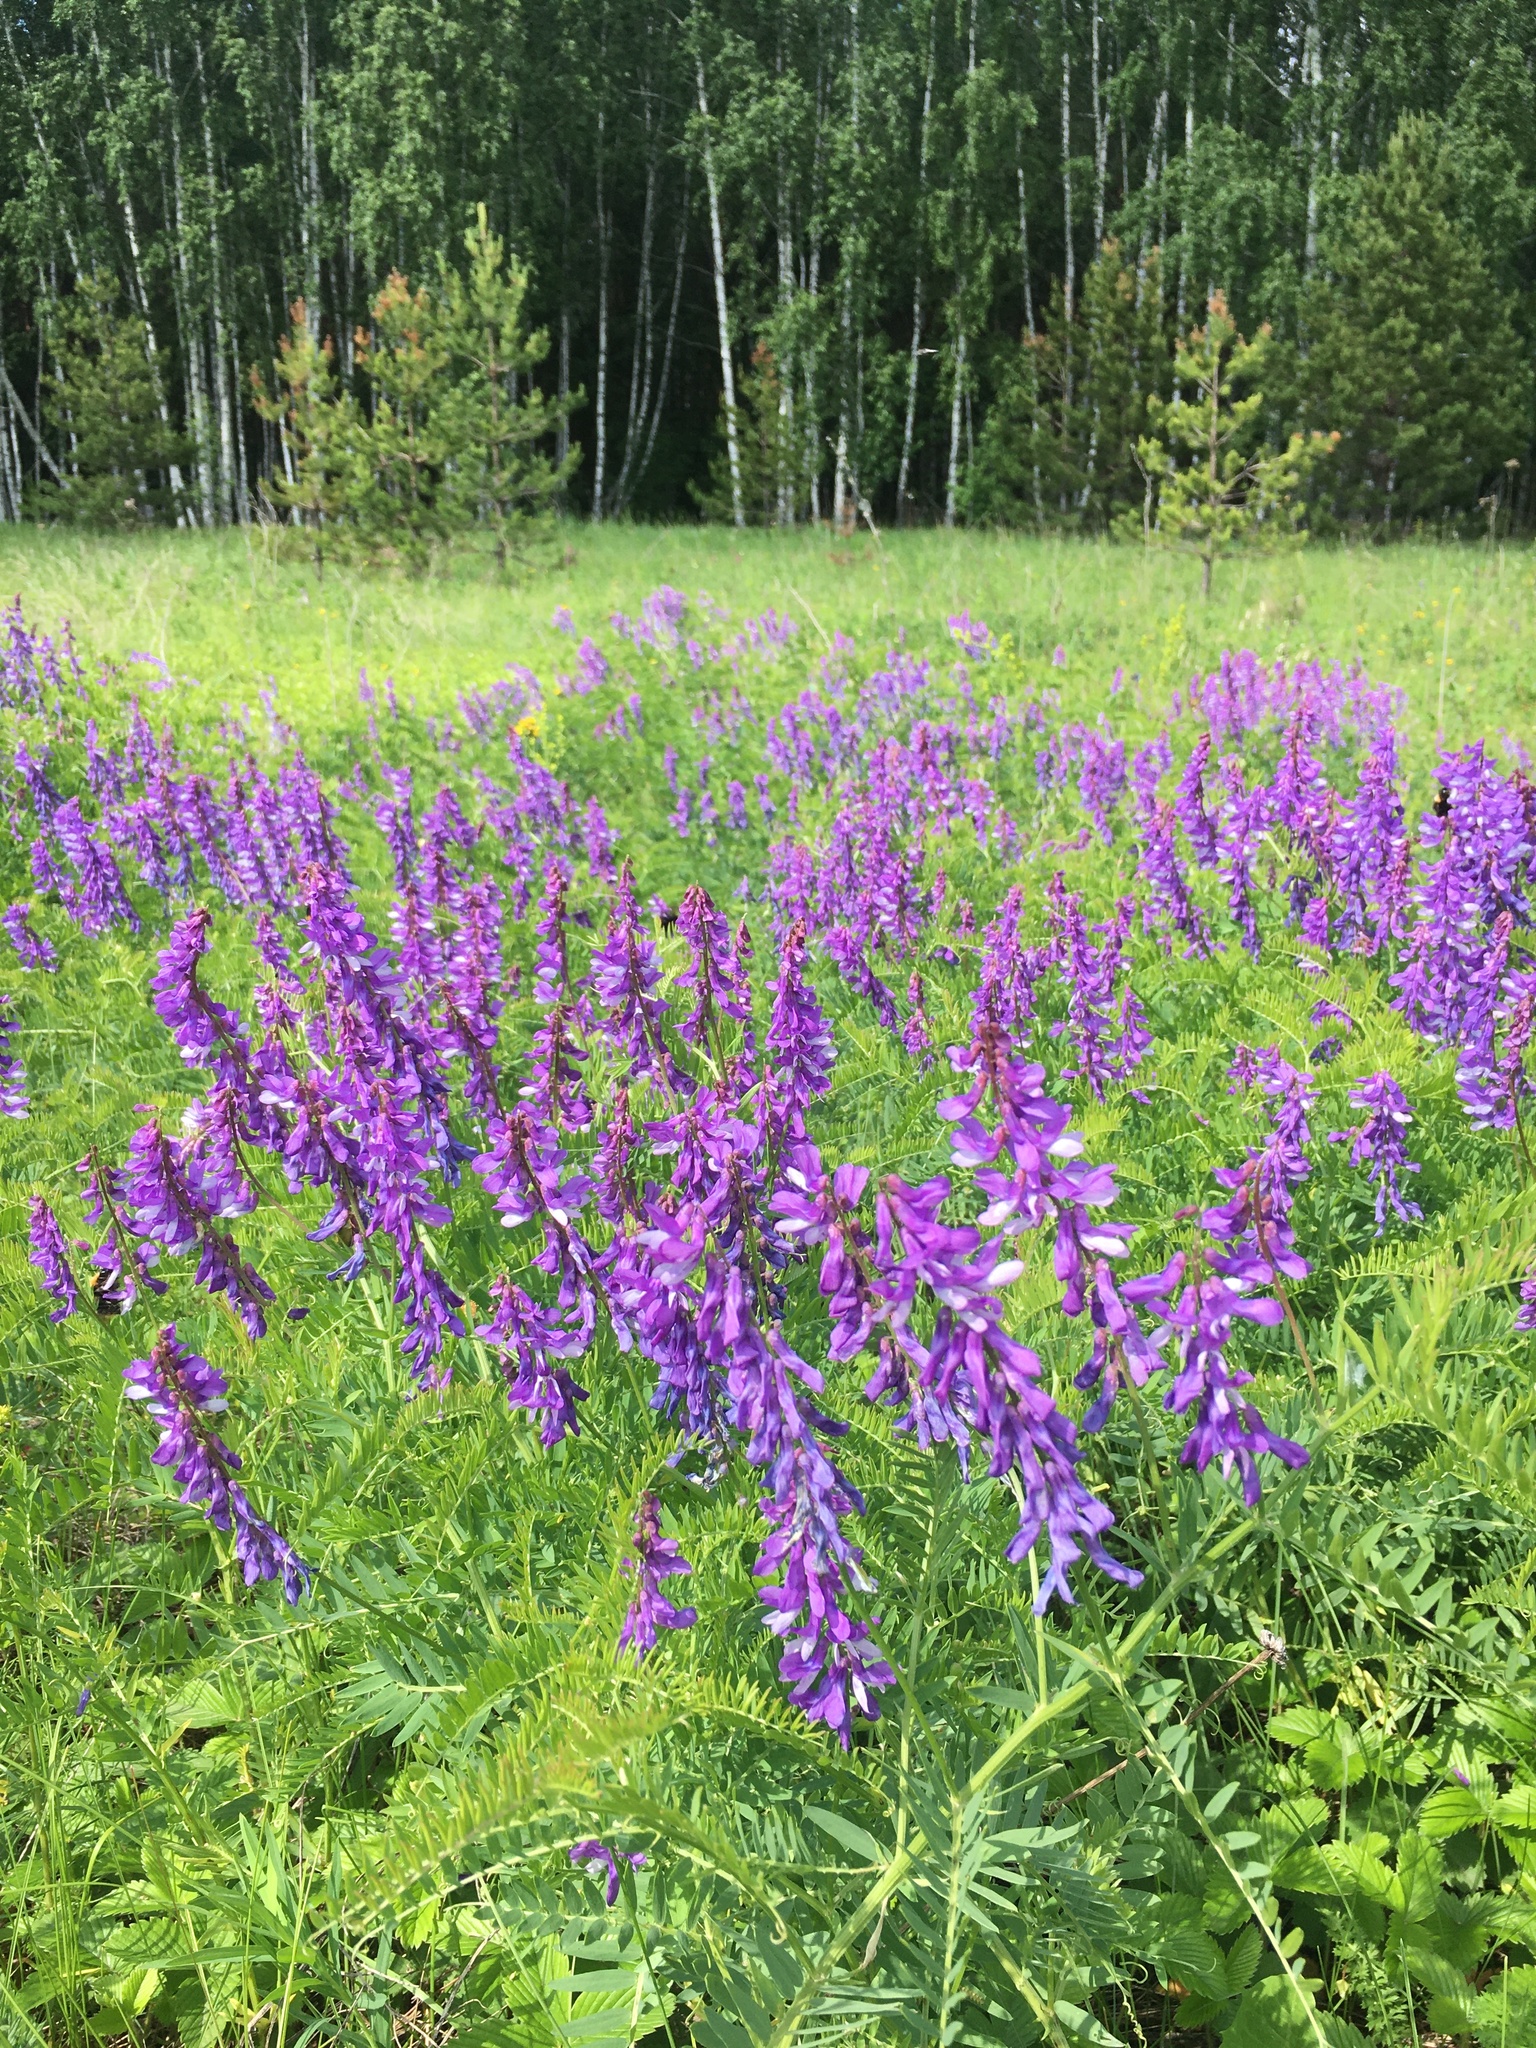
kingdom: Plantae
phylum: Tracheophyta
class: Magnoliopsida
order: Fabales
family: Fabaceae
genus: Vicia
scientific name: Vicia tenuifolia
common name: Fine-leaved vetch
